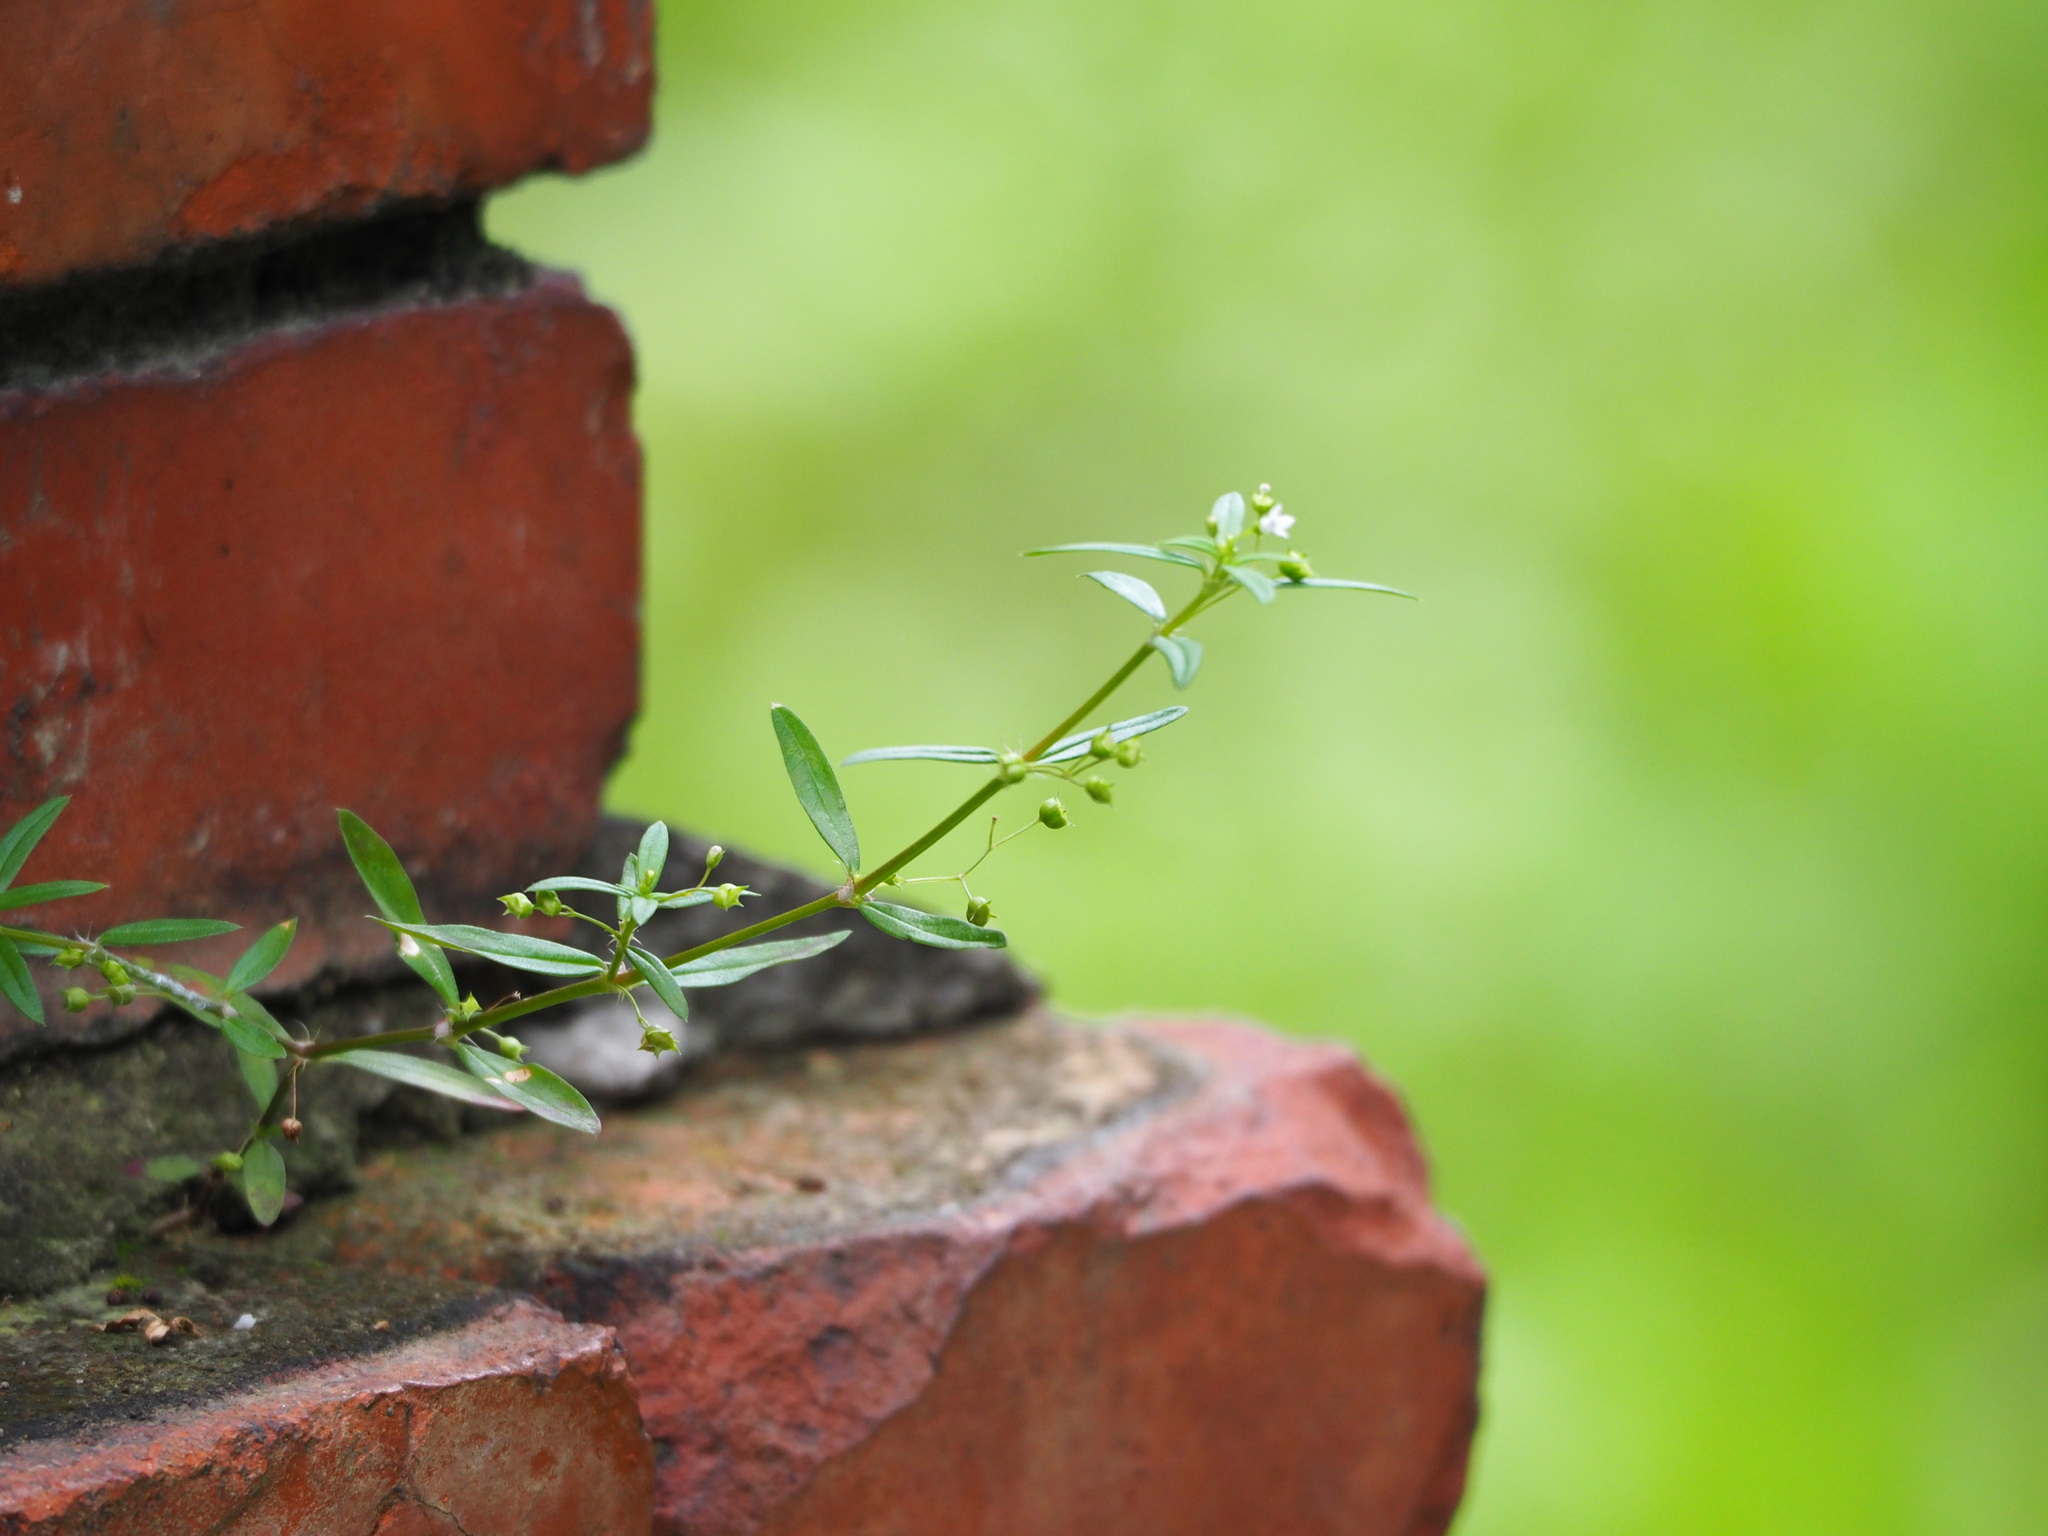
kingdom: Plantae
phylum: Tracheophyta
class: Magnoliopsida
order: Gentianales
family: Rubiaceae
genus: Oldenlandia
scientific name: Oldenlandia corymbosa
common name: Flat-top mille graines
